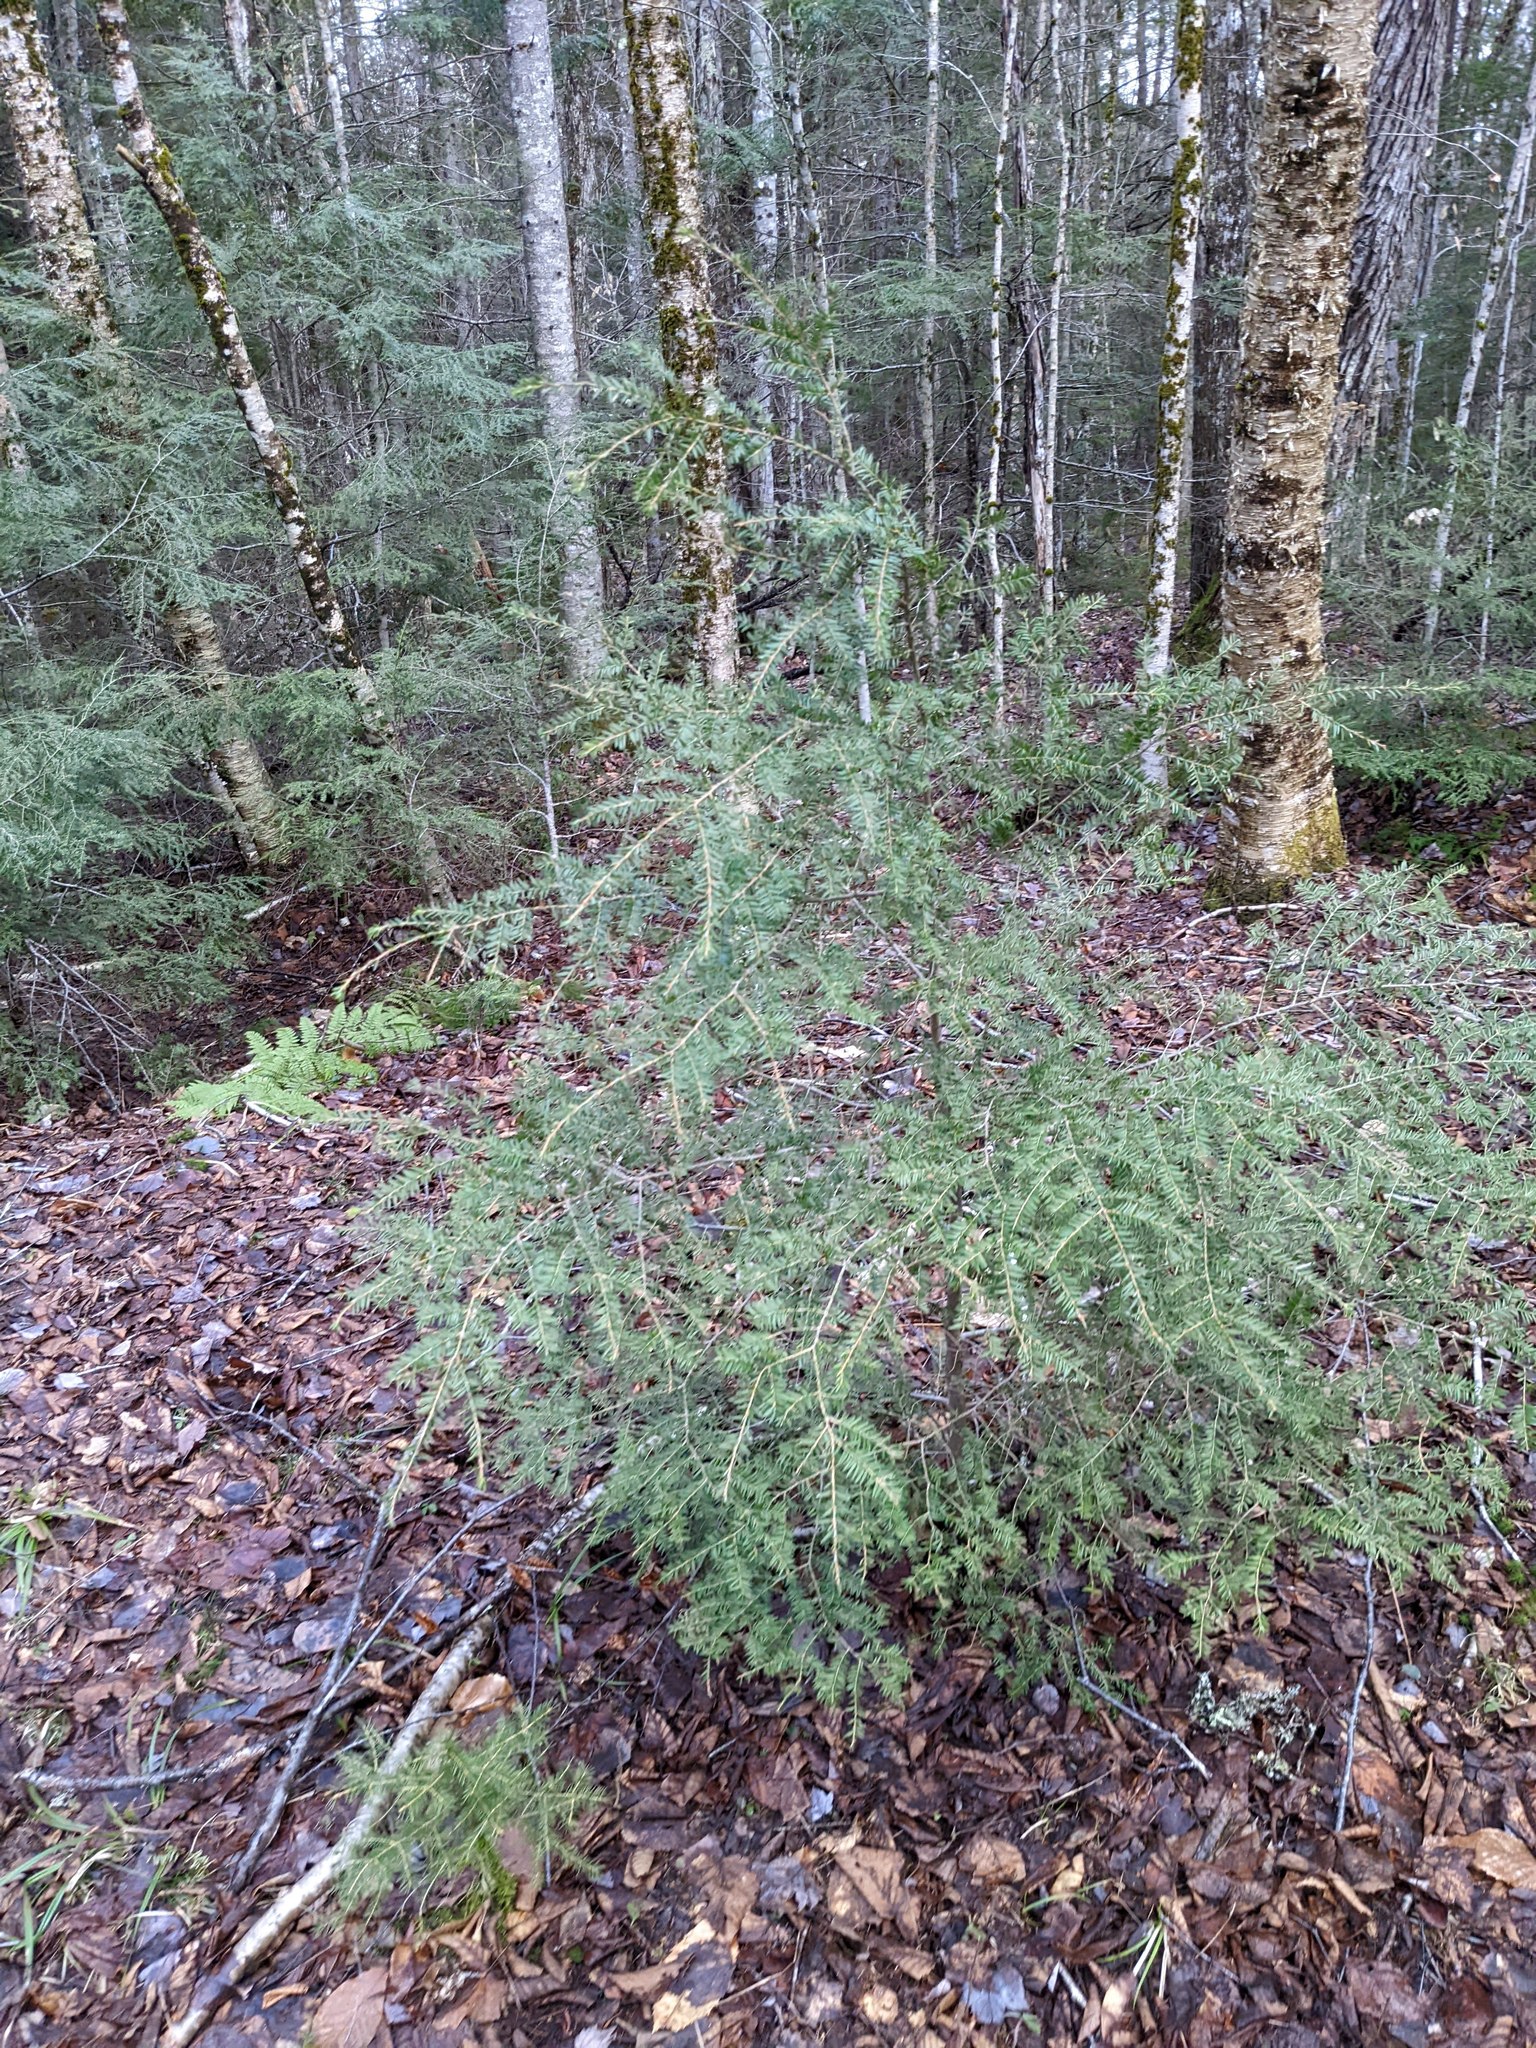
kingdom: Plantae
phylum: Tracheophyta
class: Pinopsida
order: Pinales
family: Pinaceae
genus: Tsuga
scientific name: Tsuga canadensis
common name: Eastern hemlock
